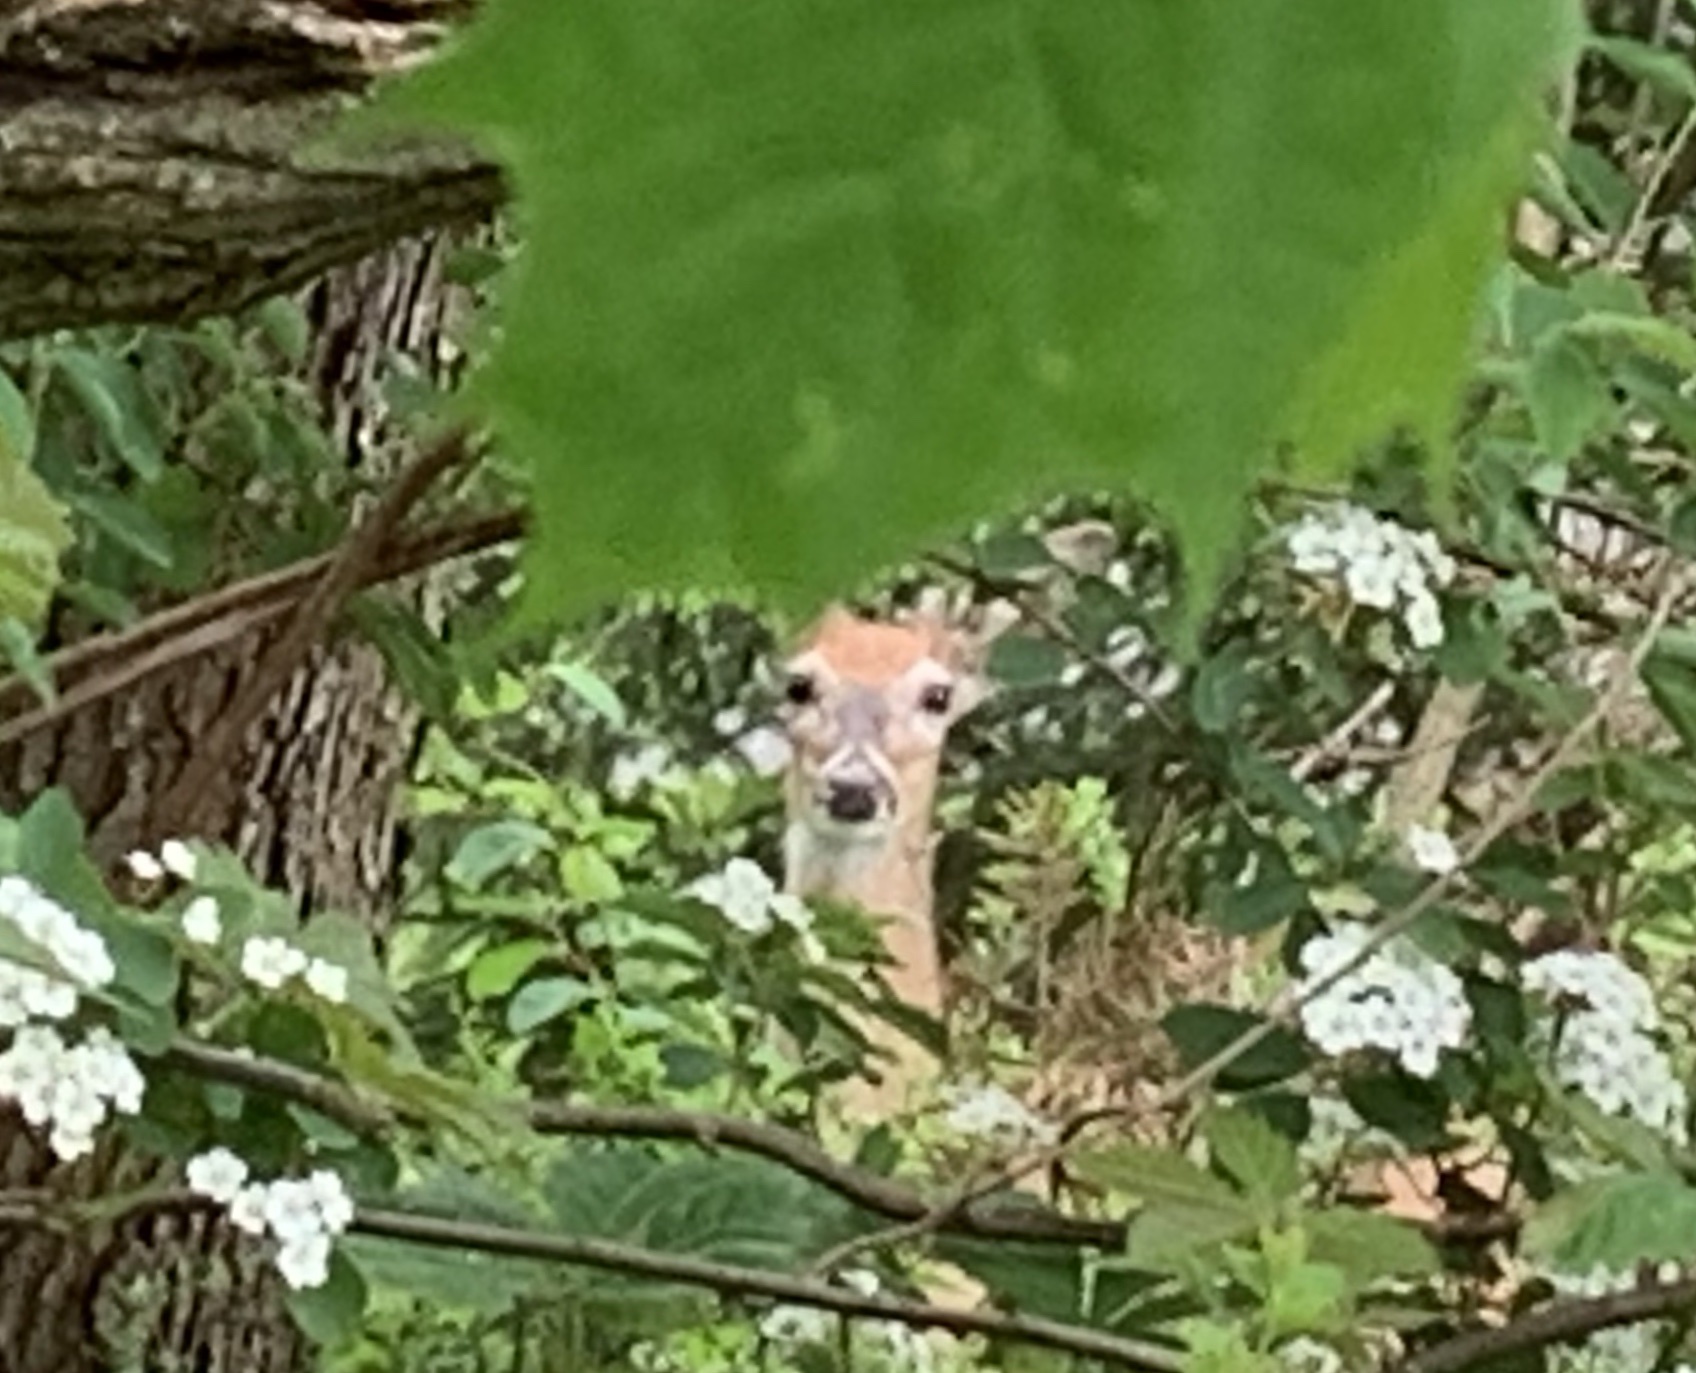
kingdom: Animalia
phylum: Chordata
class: Mammalia
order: Artiodactyla
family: Cervidae
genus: Odocoileus
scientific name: Odocoileus virginianus
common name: White-tailed deer
